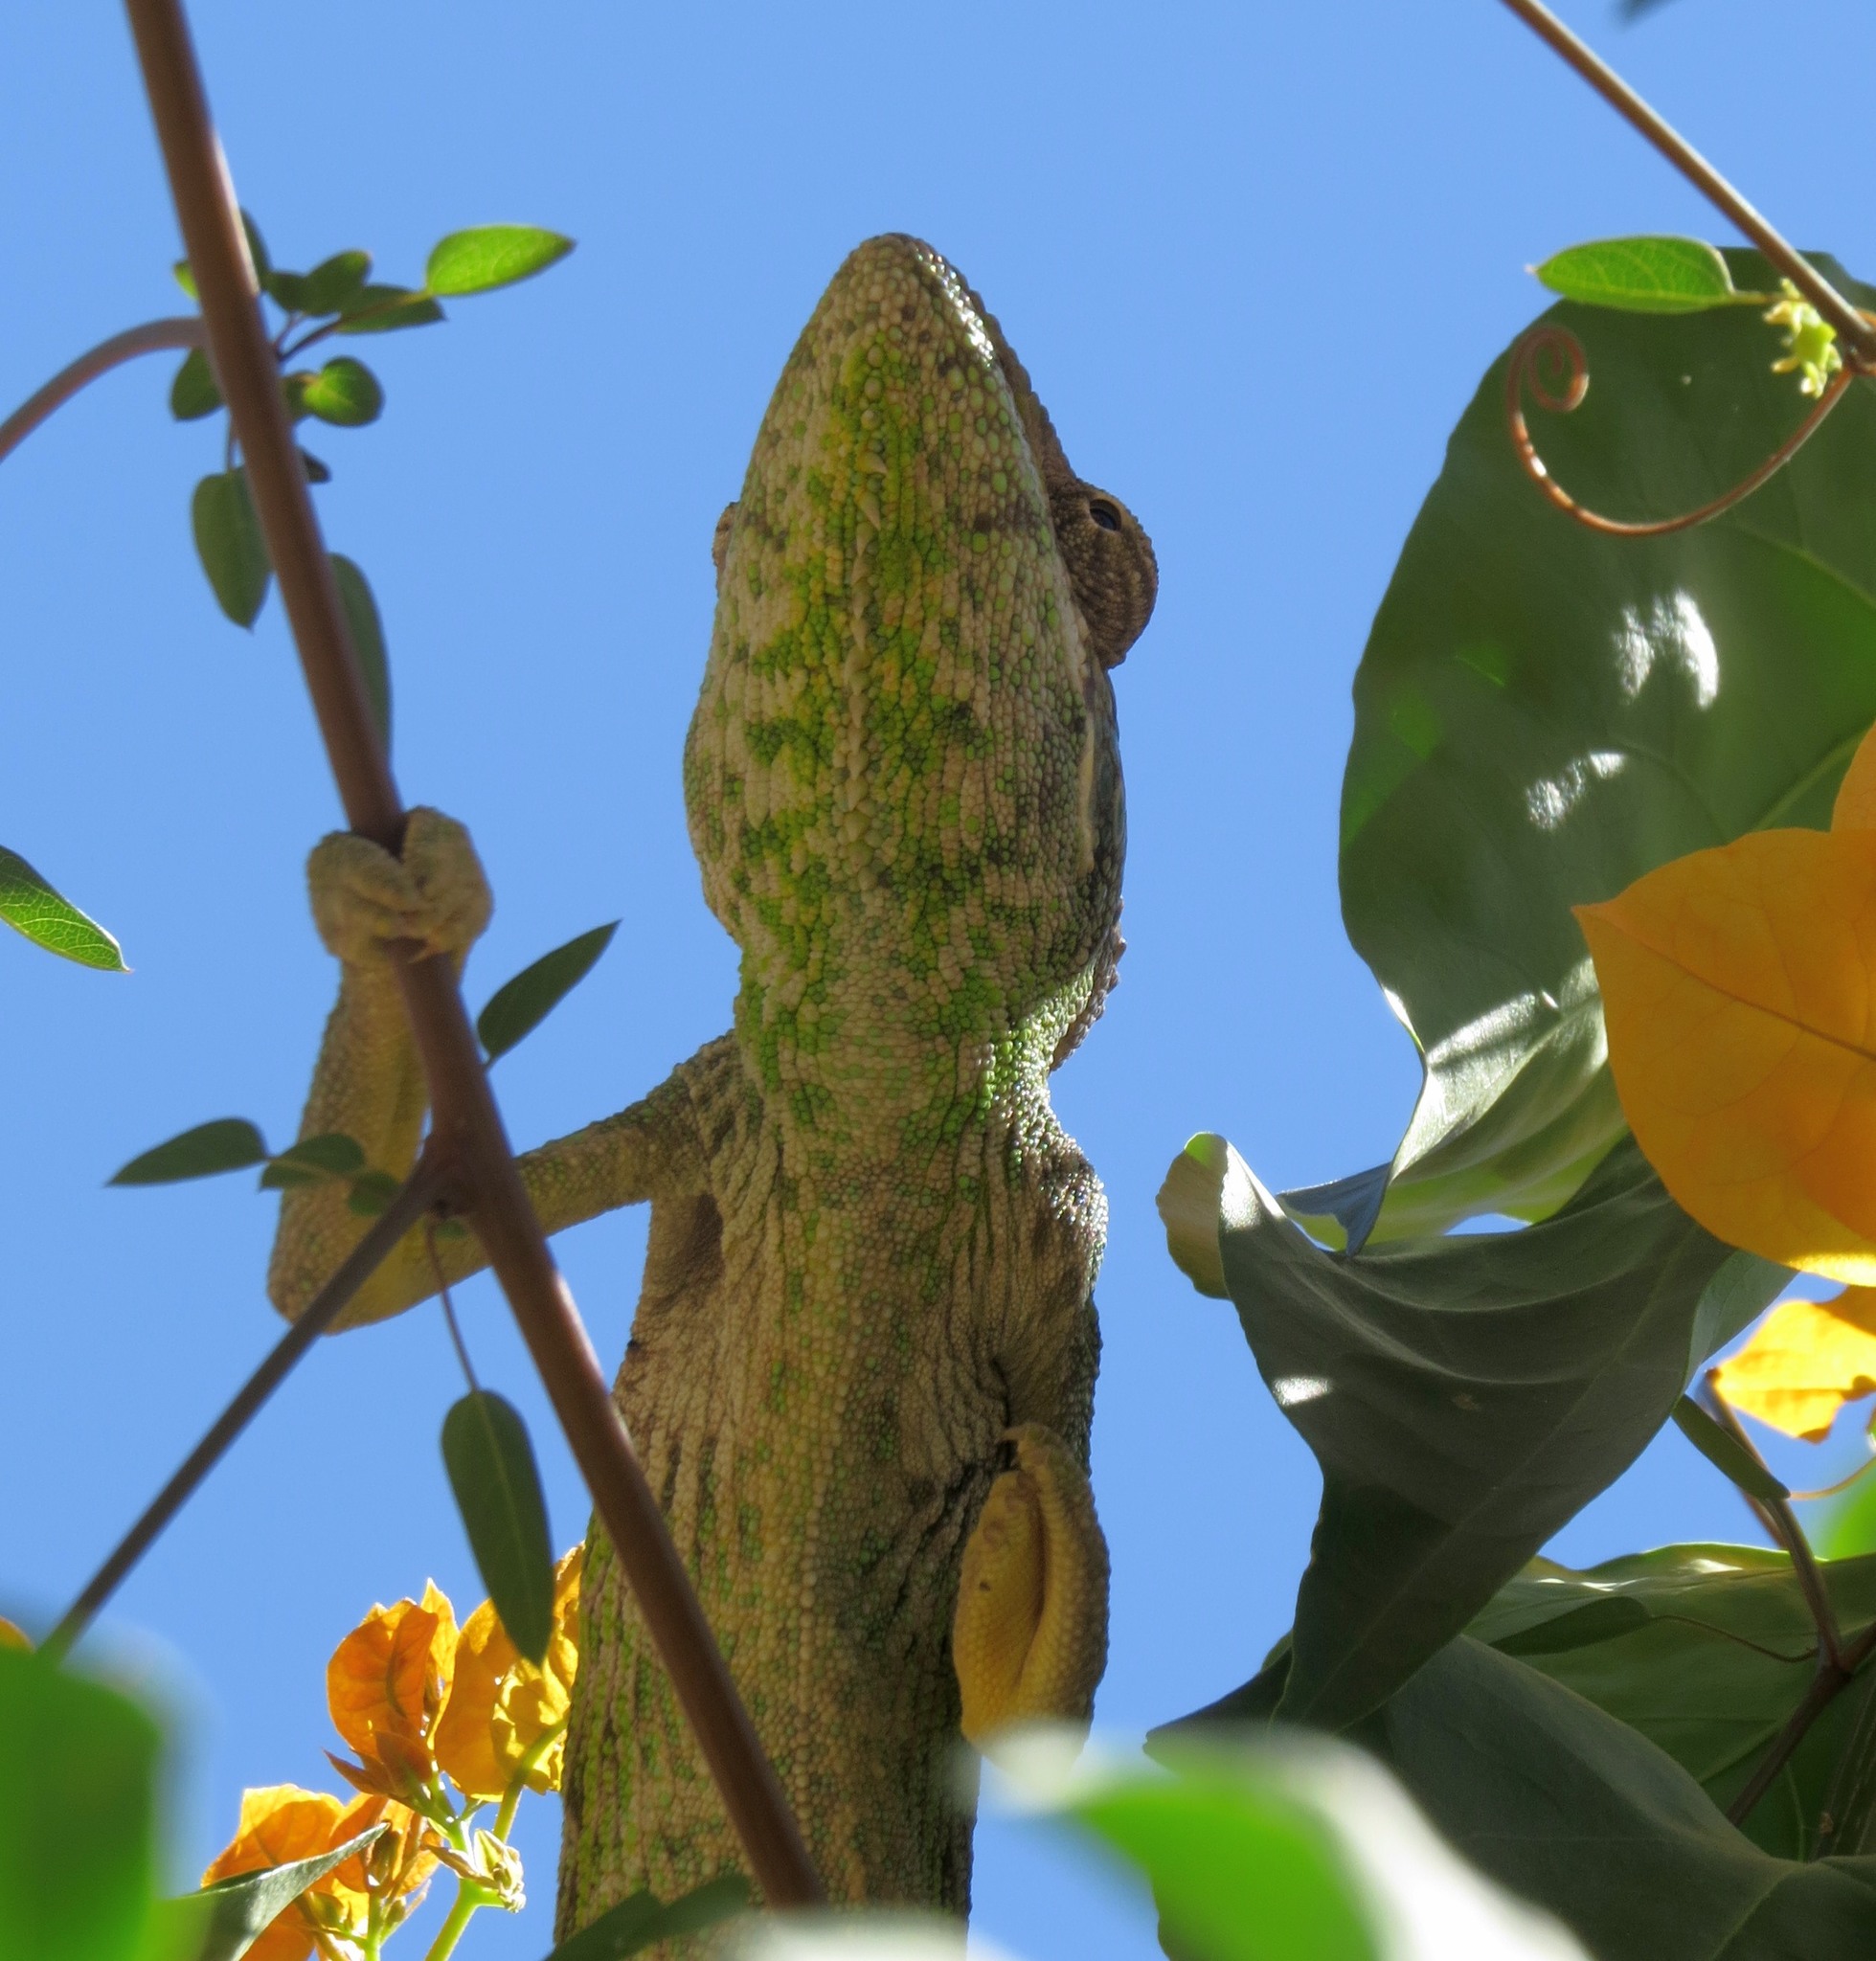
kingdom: Animalia
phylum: Chordata
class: Squamata
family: Chamaeleonidae
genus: Furcifer
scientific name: Furcifer verrucosus
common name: Warty chameleon
